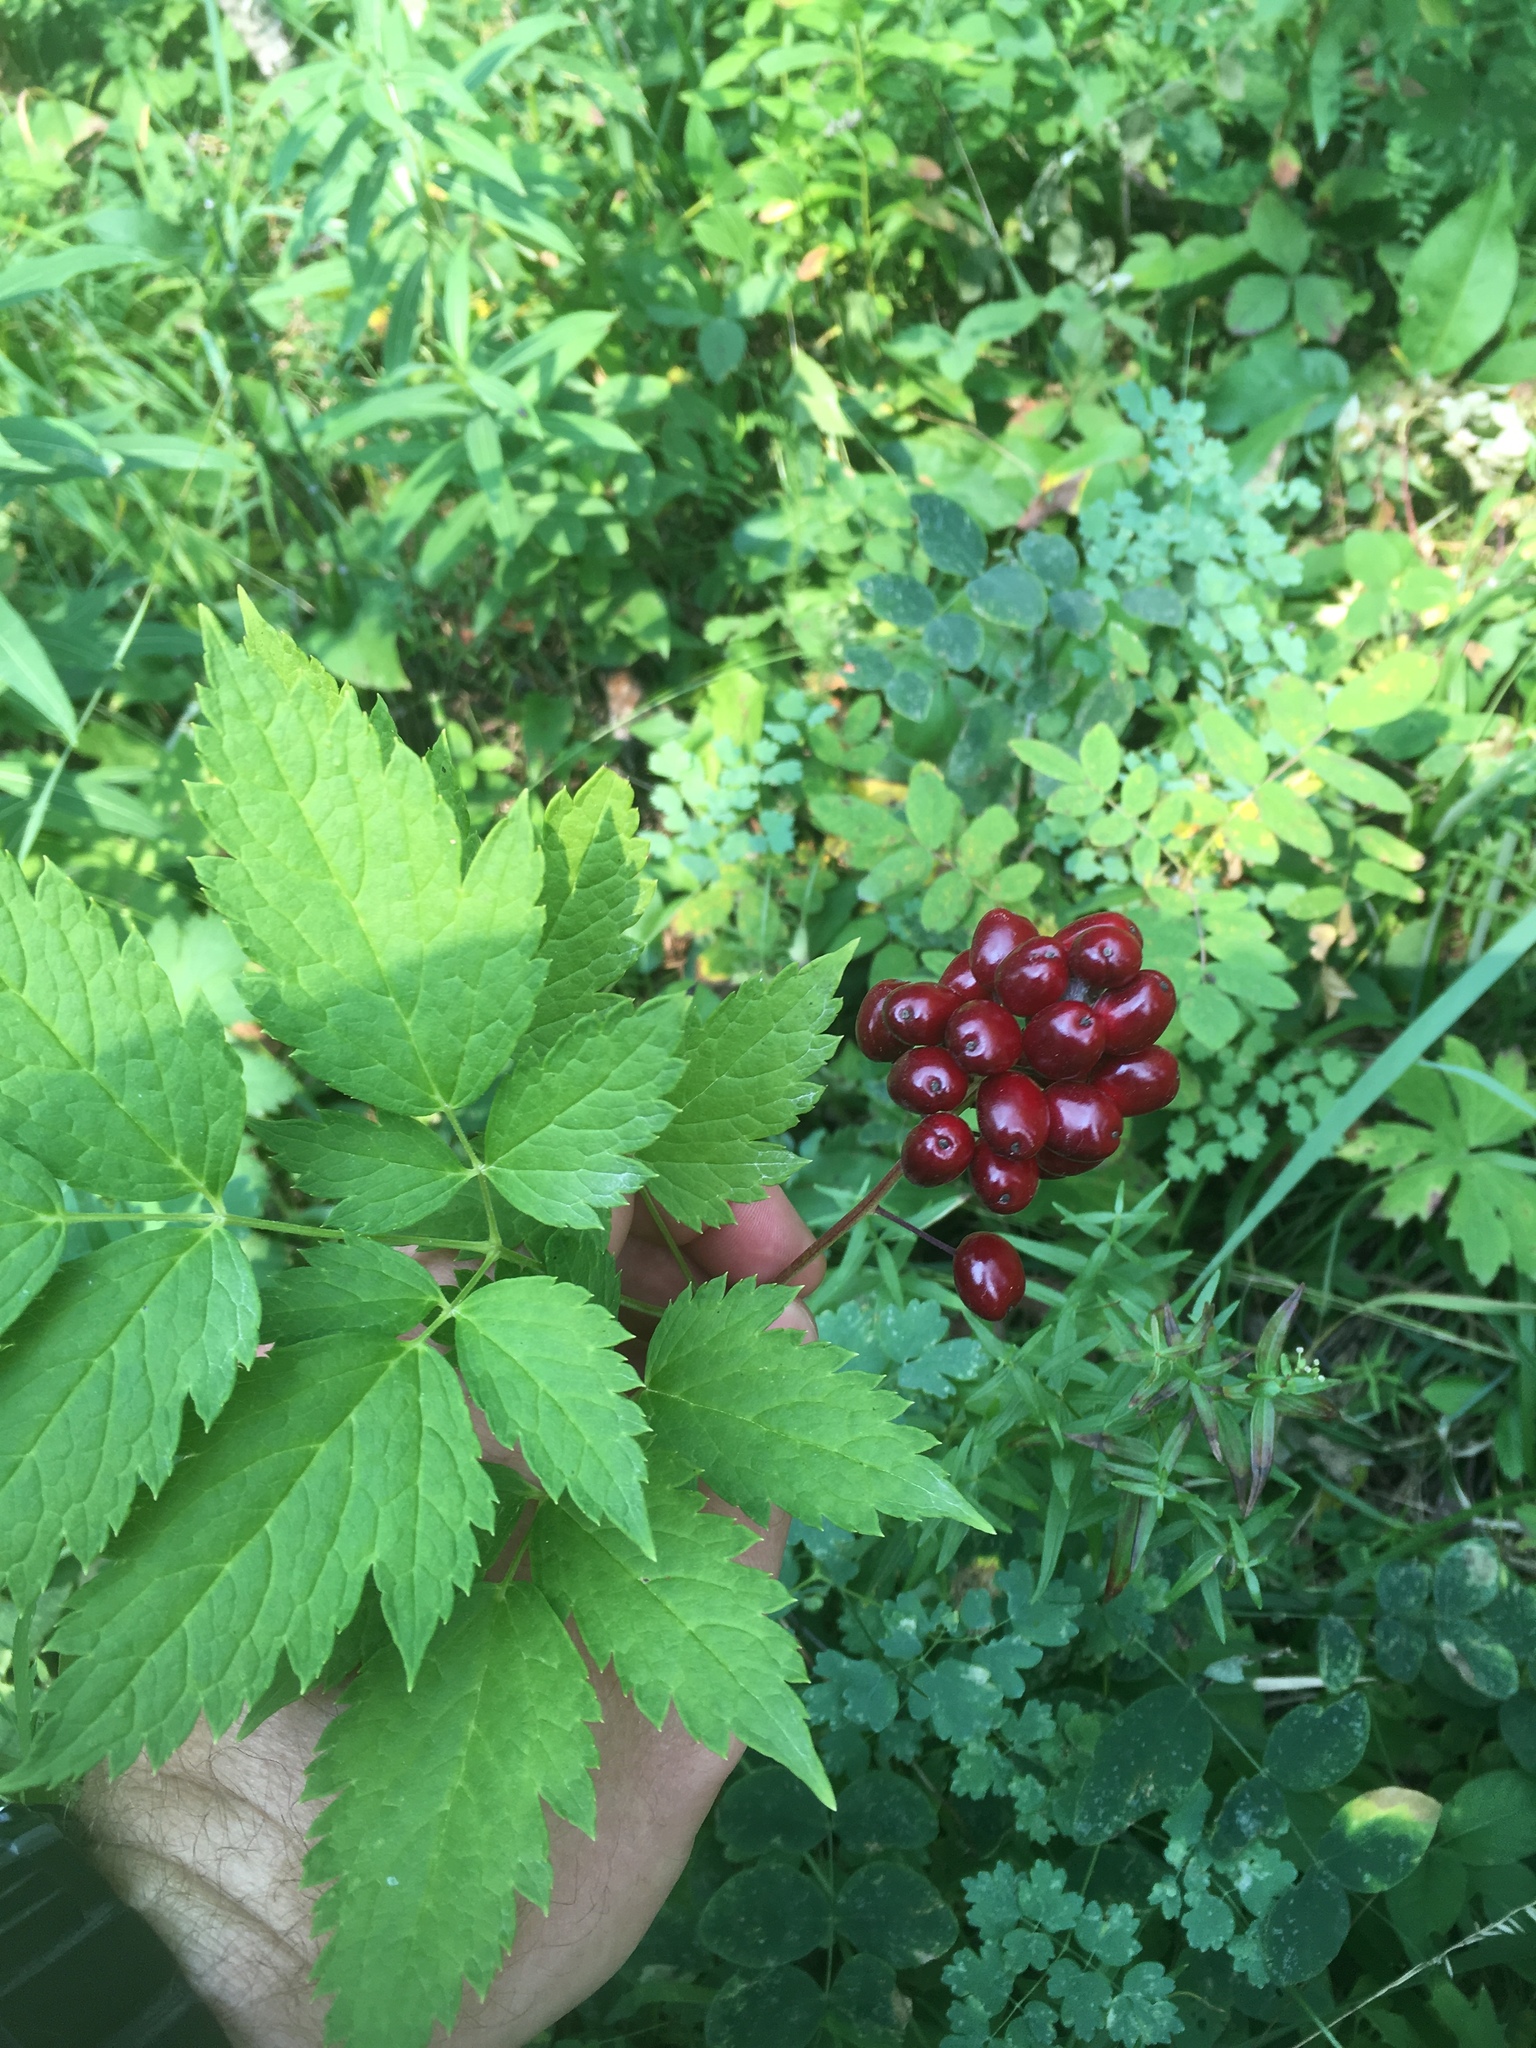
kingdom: Plantae
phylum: Tracheophyta
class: Magnoliopsida
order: Ranunculales
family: Ranunculaceae
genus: Actaea
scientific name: Actaea rubra
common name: Red baneberry
